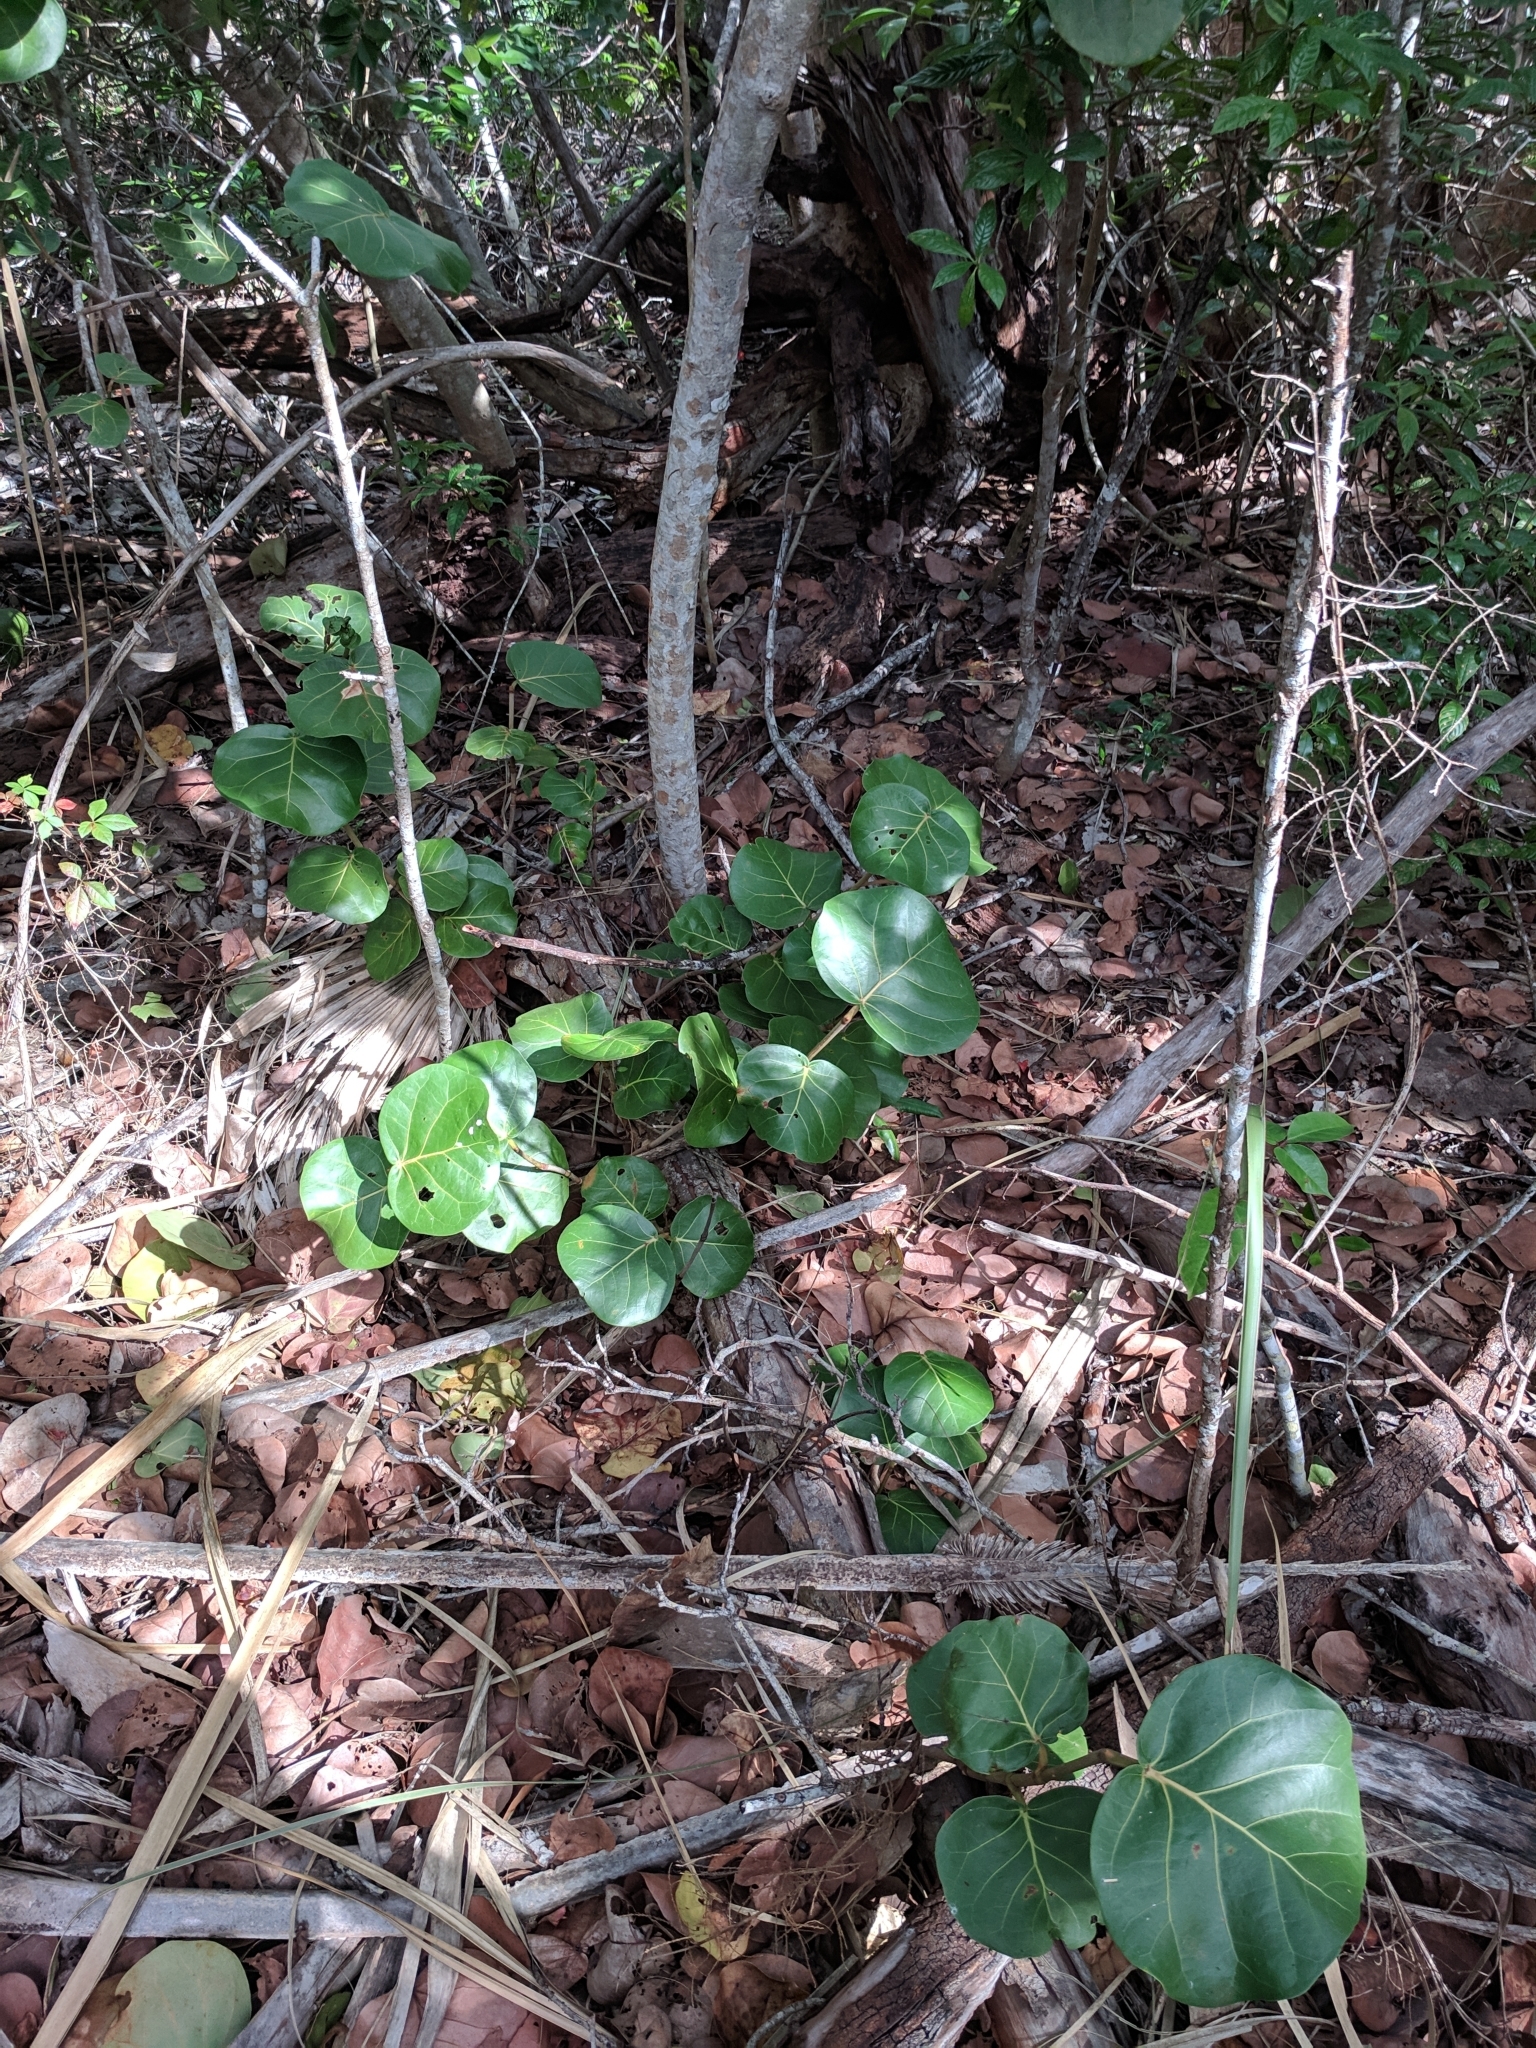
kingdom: Plantae
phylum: Tracheophyta
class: Magnoliopsida
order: Caryophyllales
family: Polygonaceae
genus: Coccoloba
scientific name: Coccoloba uvifera
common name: Seagrape
